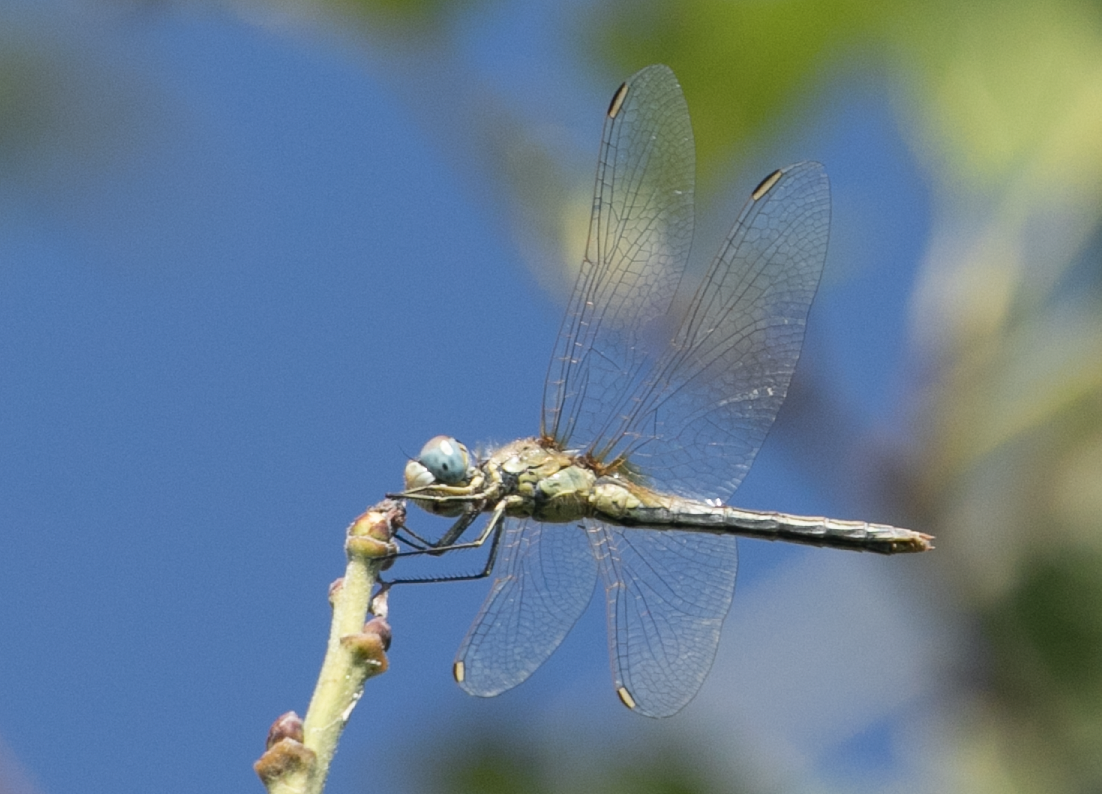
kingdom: Animalia
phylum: Arthropoda
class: Insecta
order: Odonata
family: Libellulidae
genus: Sympetrum
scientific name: Sympetrum fonscolombii
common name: Red-veined darter
